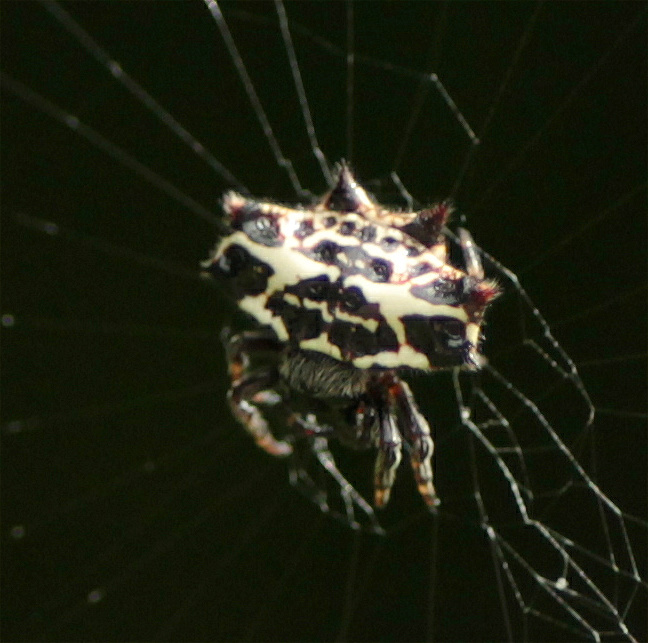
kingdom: Animalia
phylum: Arthropoda
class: Arachnida
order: Araneae
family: Araneidae
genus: Gasteracantha
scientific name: Gasteracantha cancriformis
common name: Orb weavers
